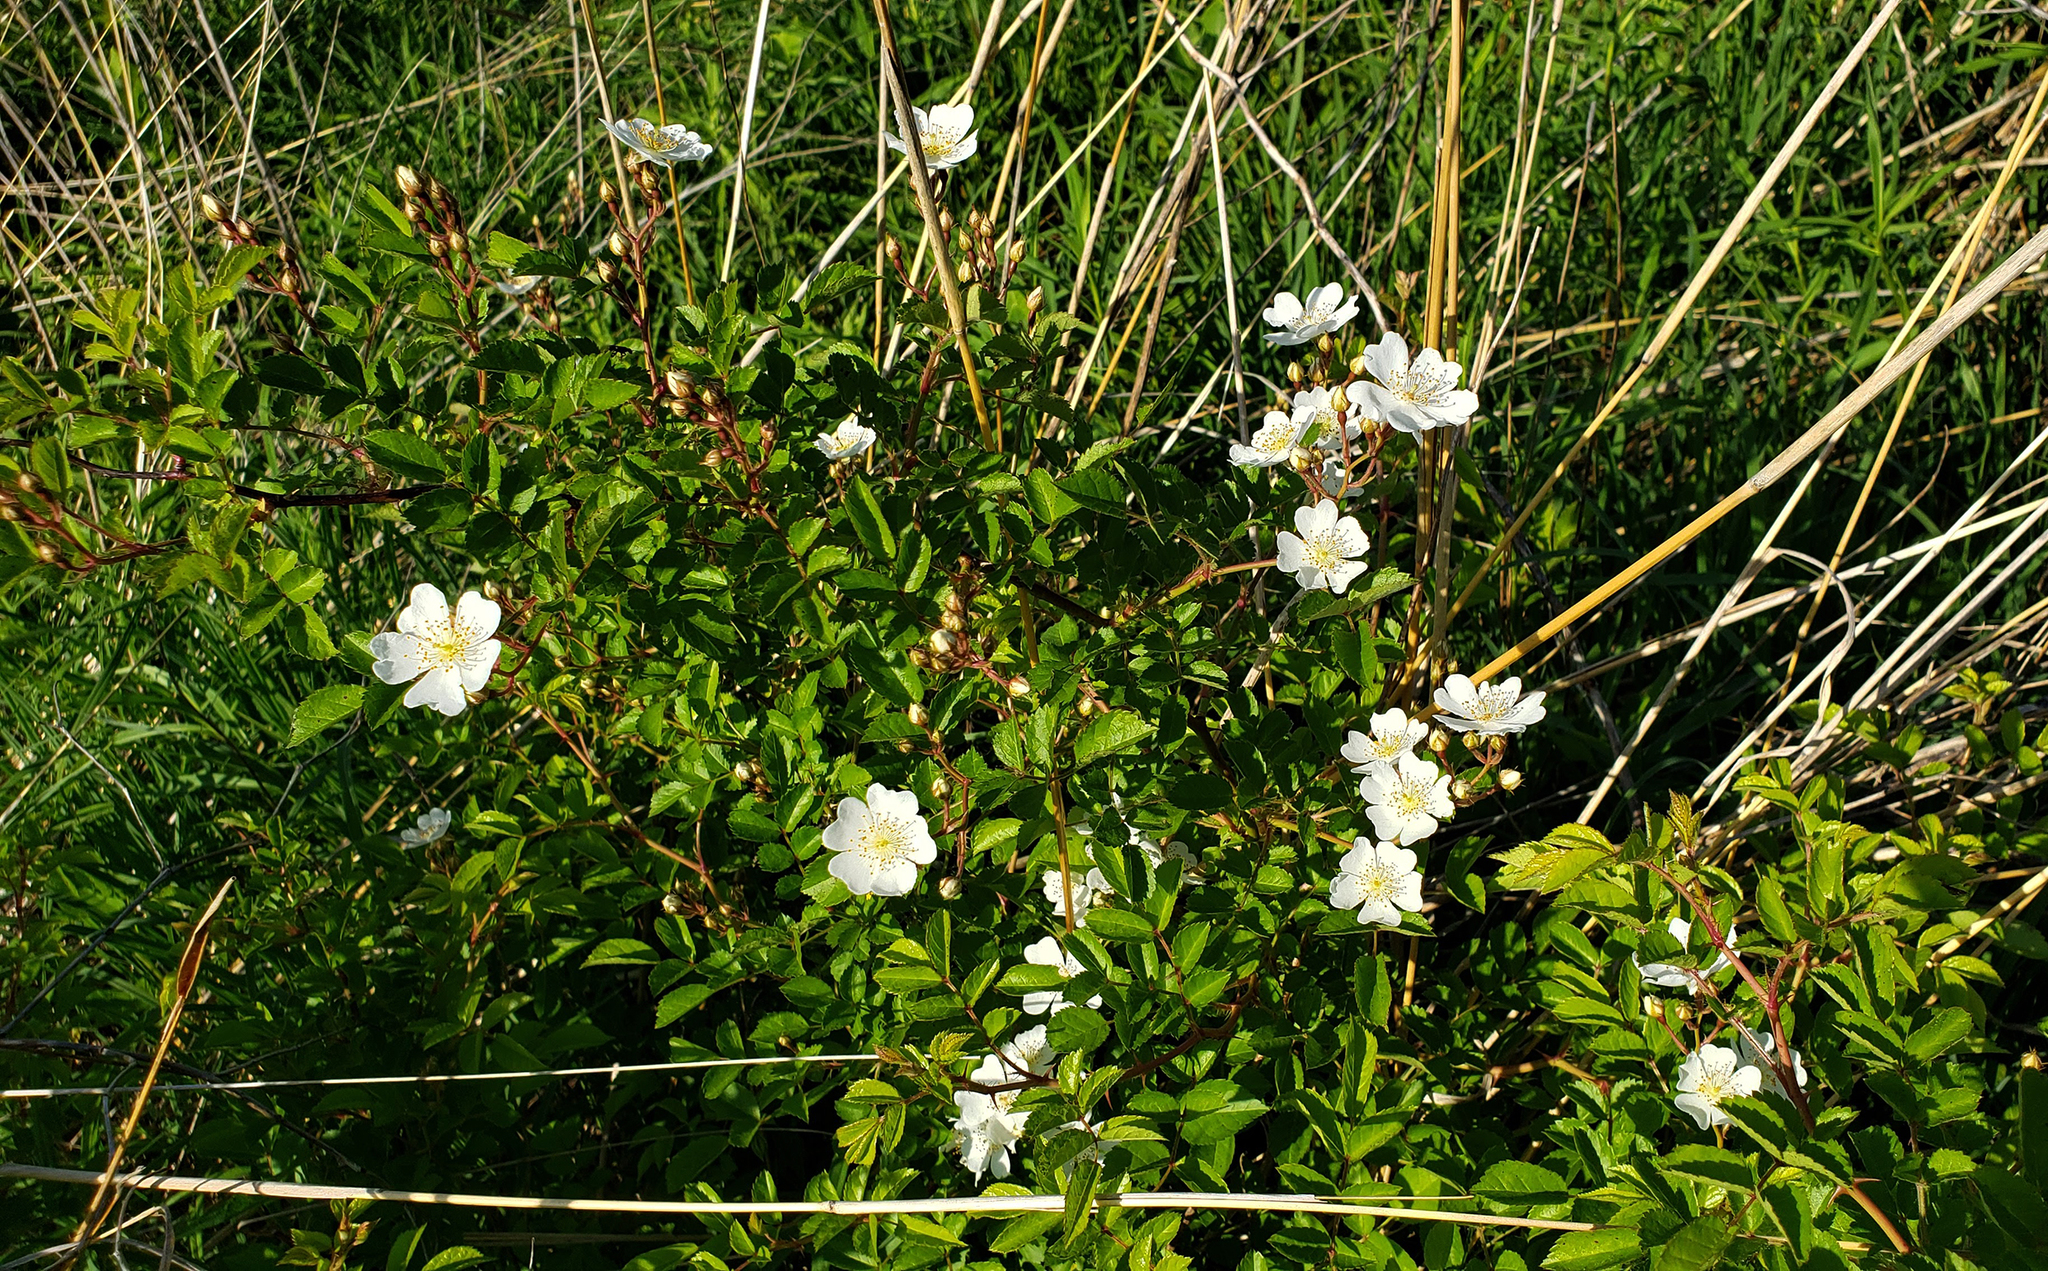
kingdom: Plantae
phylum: Tracheophyta
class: Magnoliopsida
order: Rosales
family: Rosaceae
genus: Rosa
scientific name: Rosa multiflora
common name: Multiflora rose
